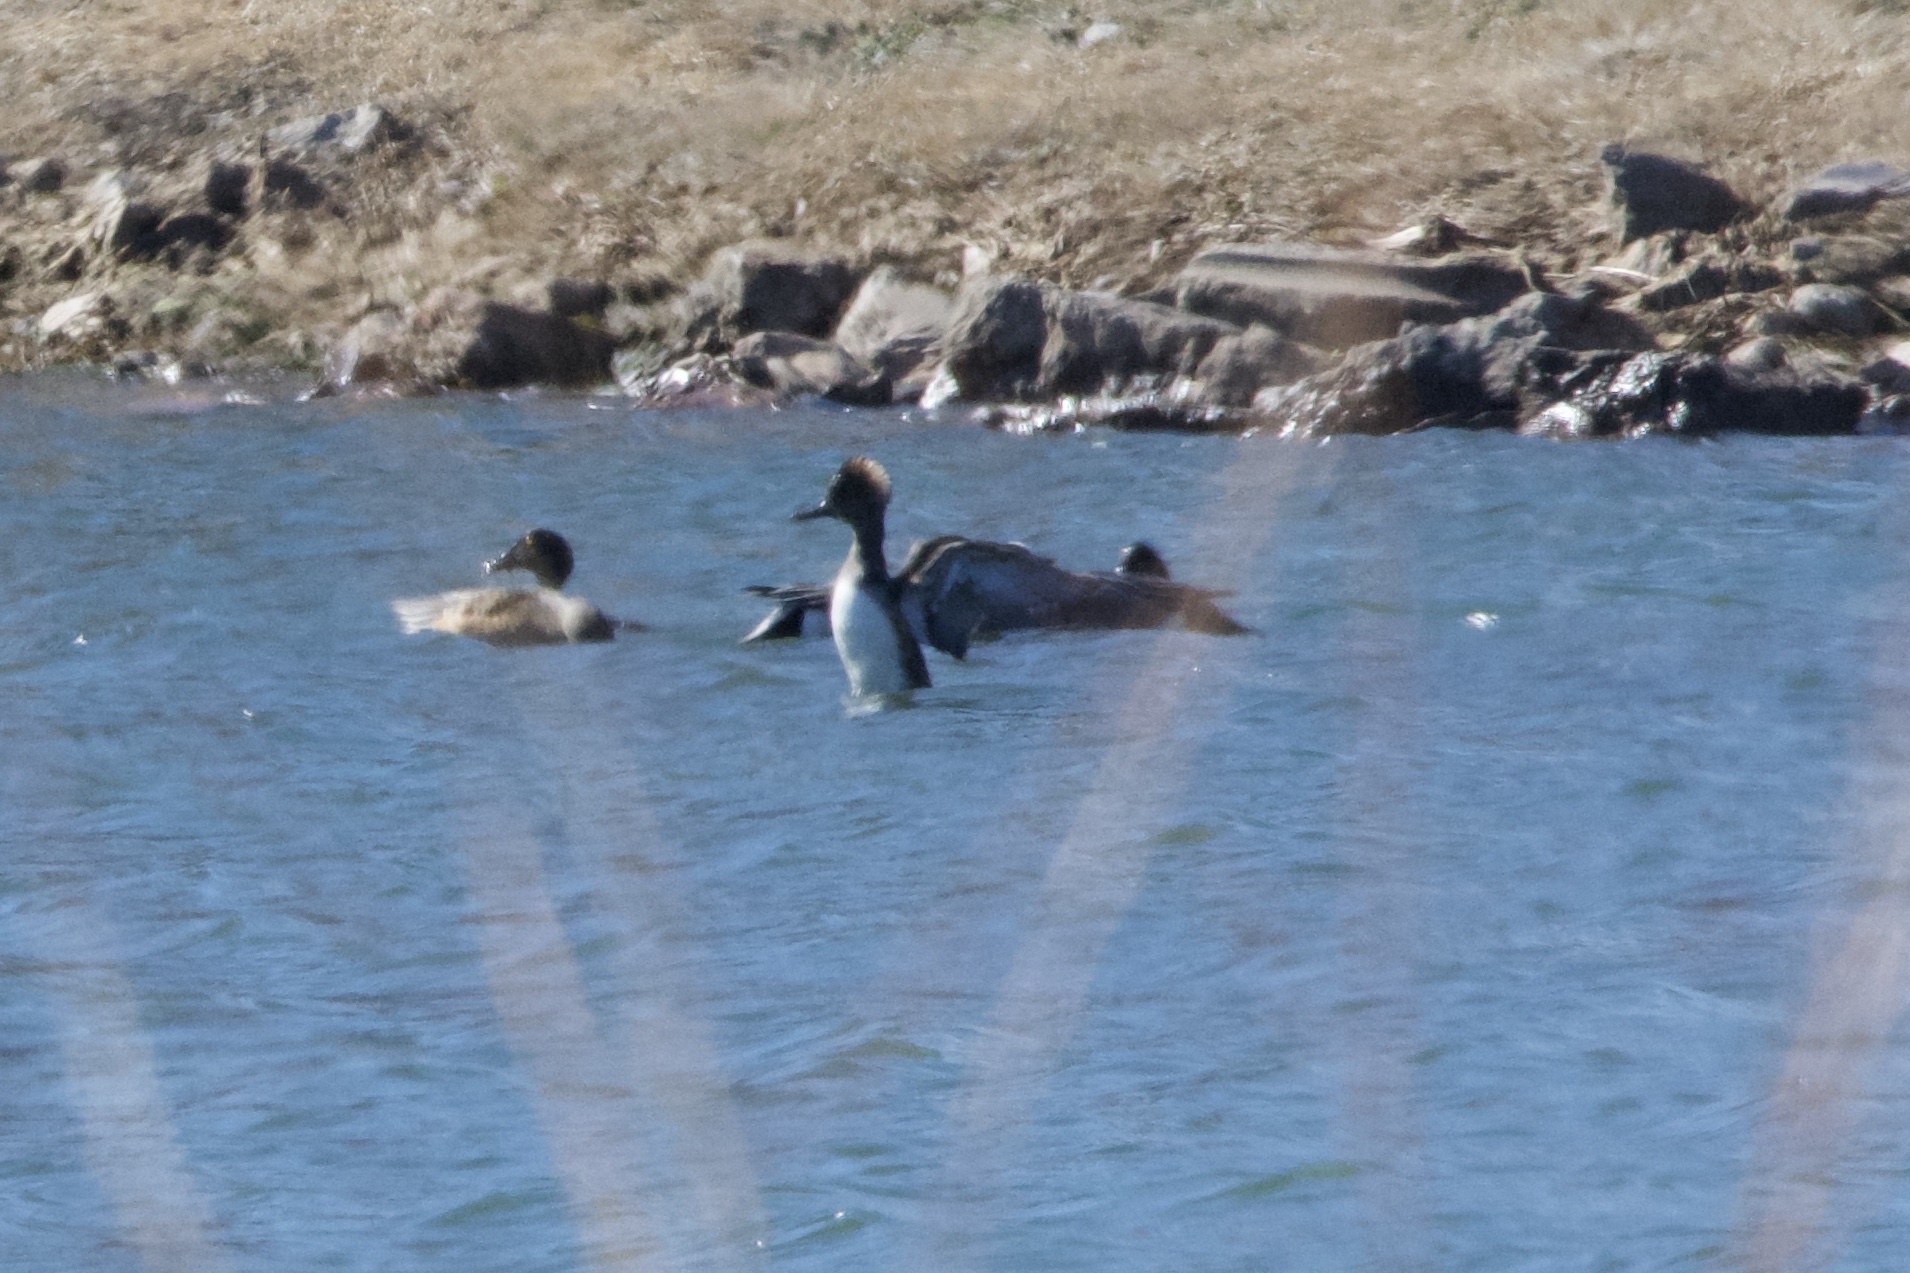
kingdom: Animalia
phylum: Chordata
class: Aves
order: Anseriformes
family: Anatidae
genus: Lophodytes
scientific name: Lophodytes cucullatus
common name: Hooded merganser
